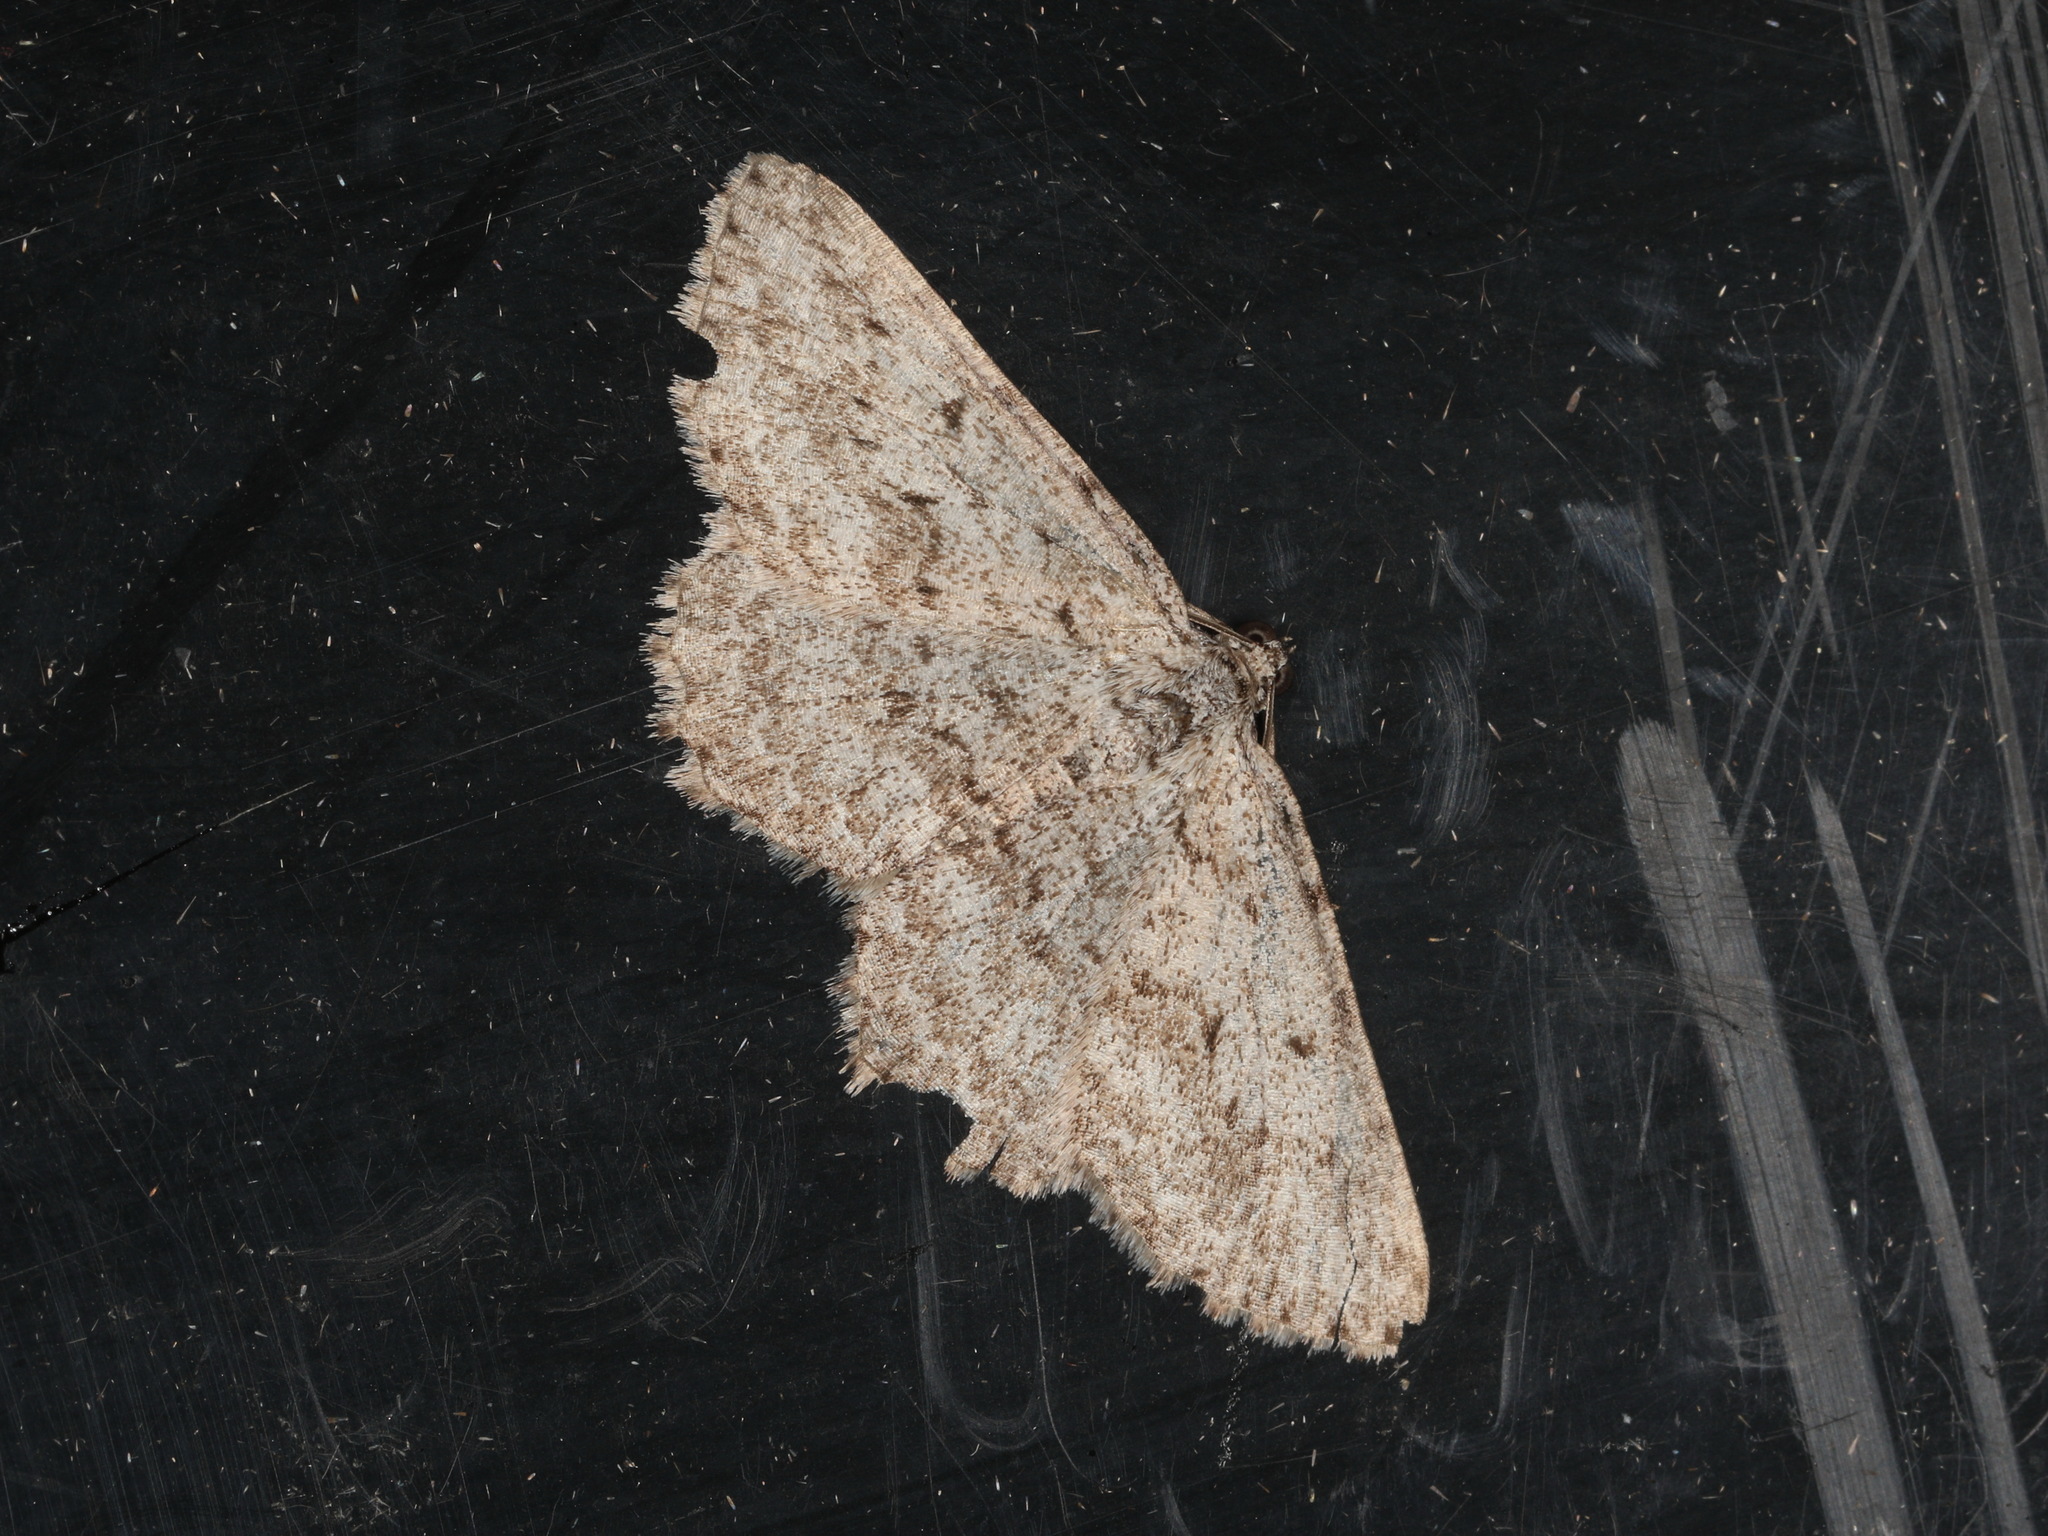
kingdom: Animalia
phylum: Arthropoda
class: Insecta
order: Lepidoptera
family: Geometridae
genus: Psilosticha
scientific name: Psilosticha absorpta
